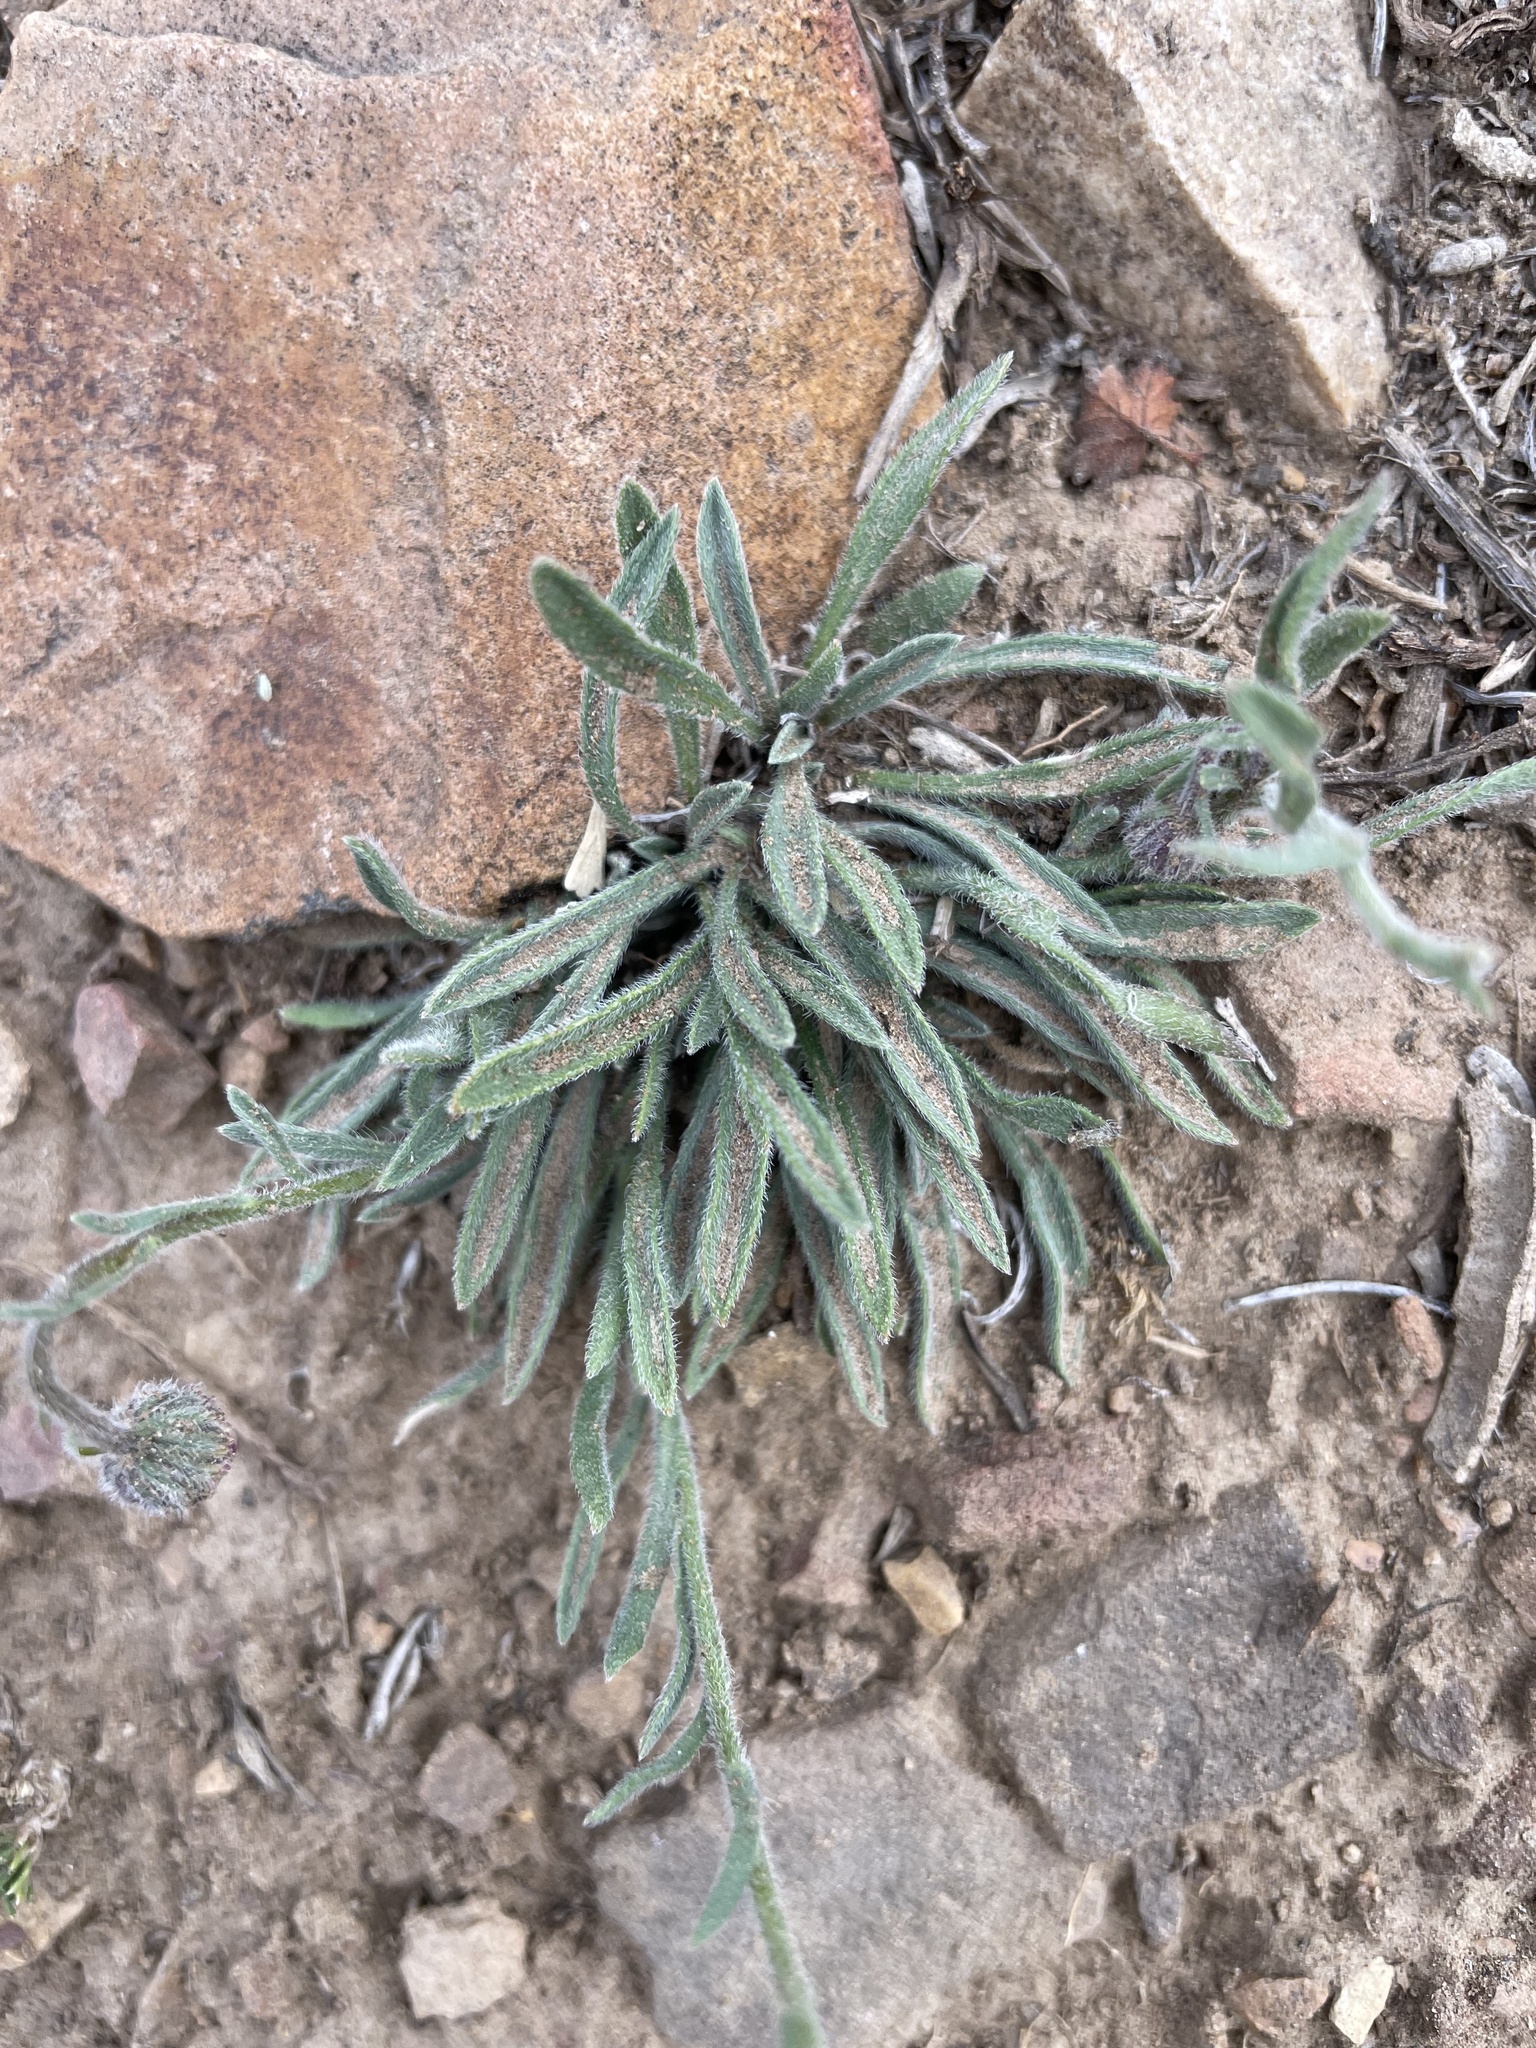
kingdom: Plantae
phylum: Tracheophyta
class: Magnoliopsida
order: Asterales
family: Asteraceae
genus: Erigeron
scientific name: Erigeron clokeyi
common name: Clokey's fleabane
